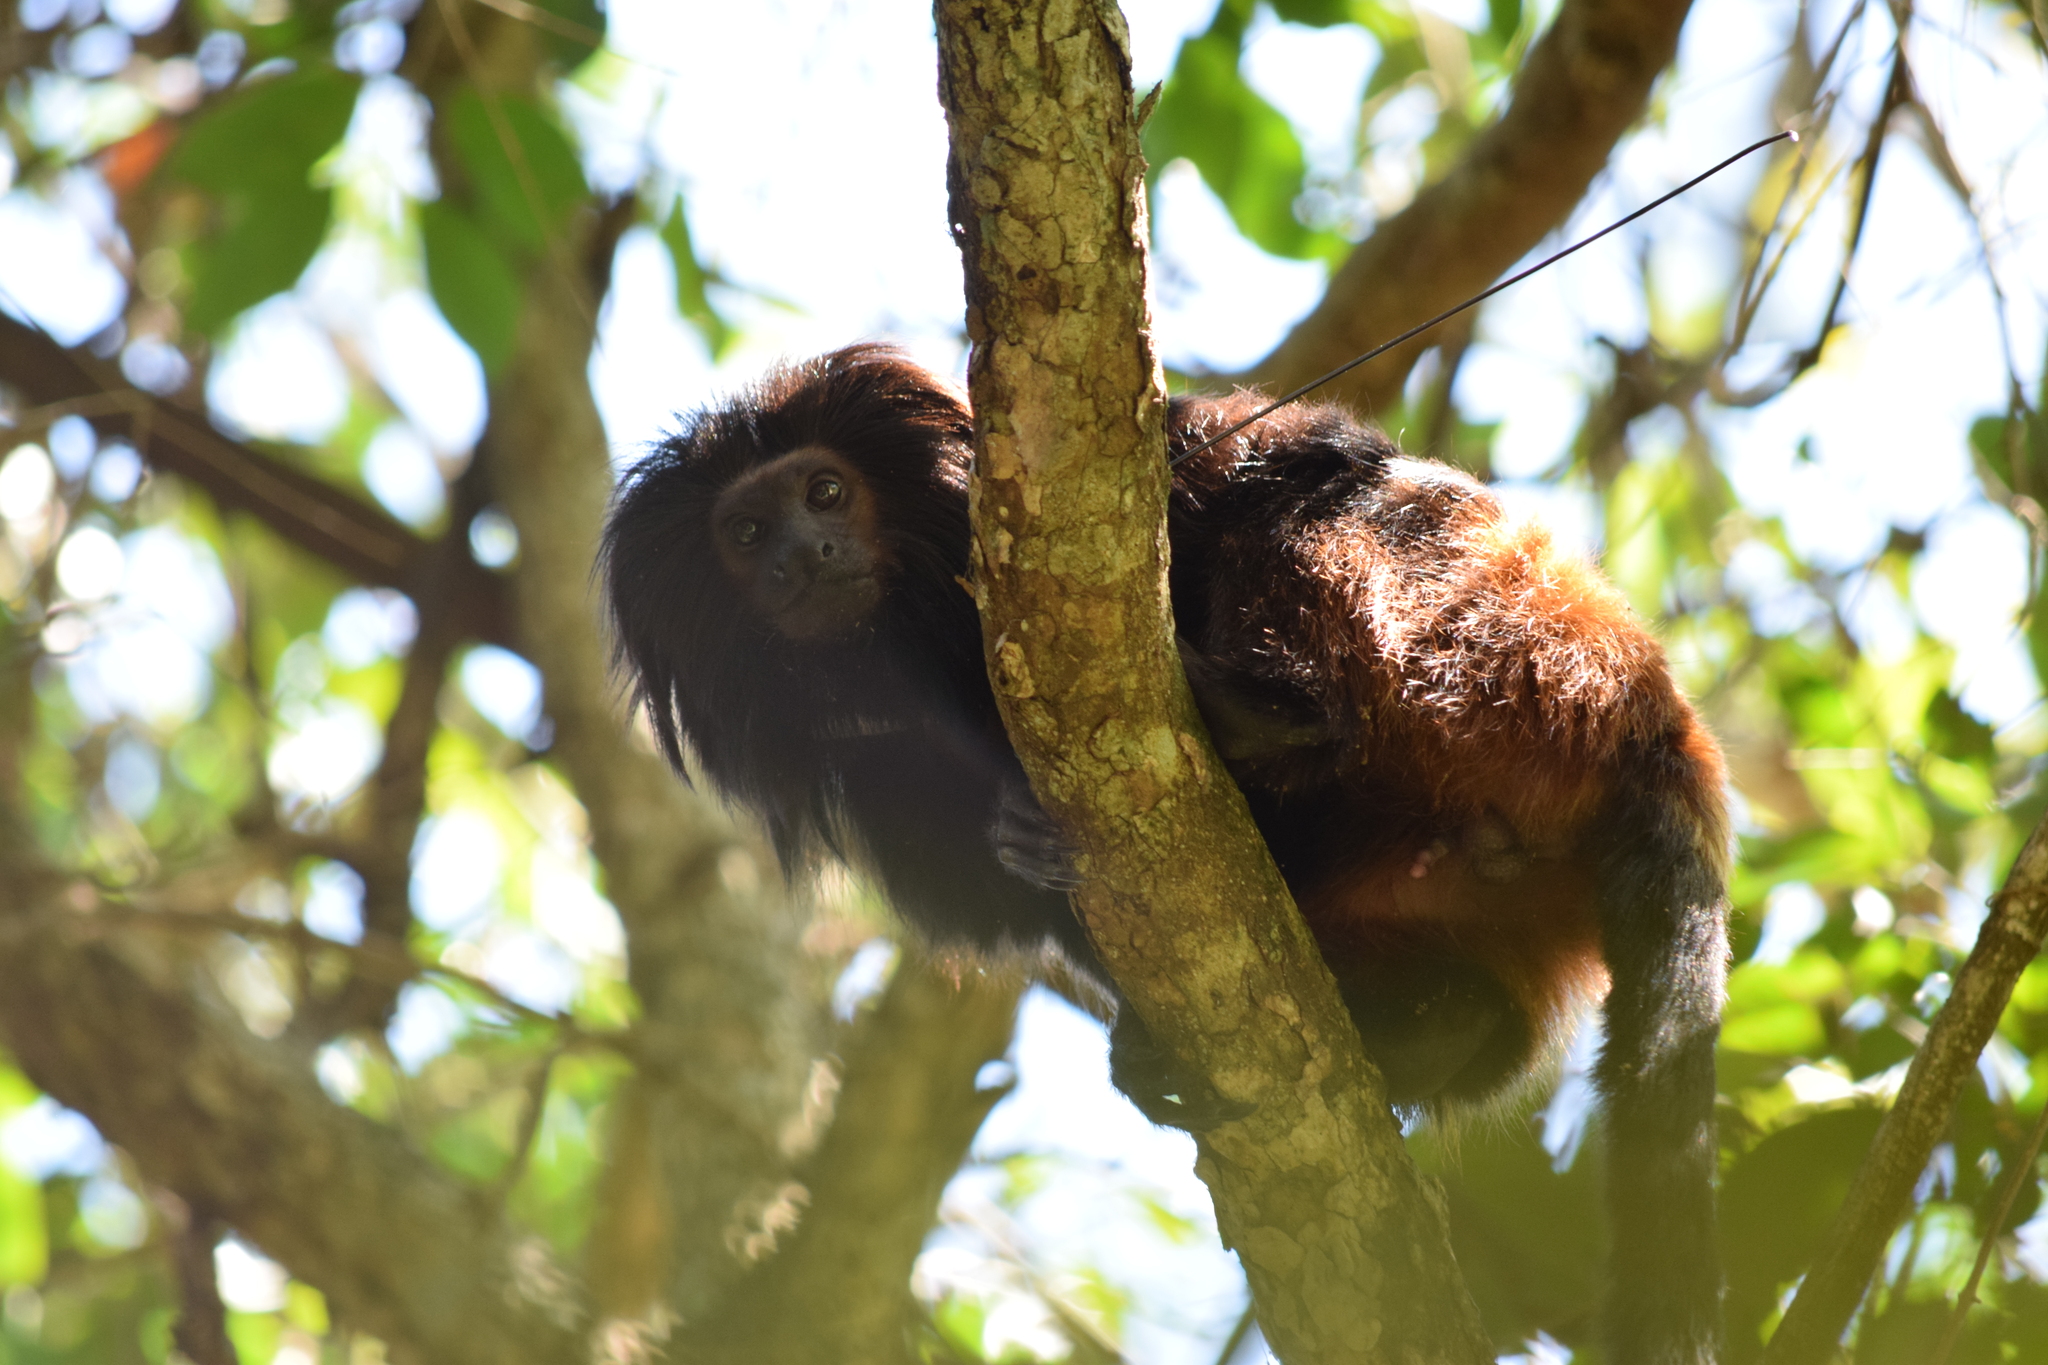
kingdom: Animalia
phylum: Chordata
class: Mammalia
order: Primates
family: Callitrichidae
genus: Leontopithecus
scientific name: Leontopithecus chrysopygus
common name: Black lion tamarin
